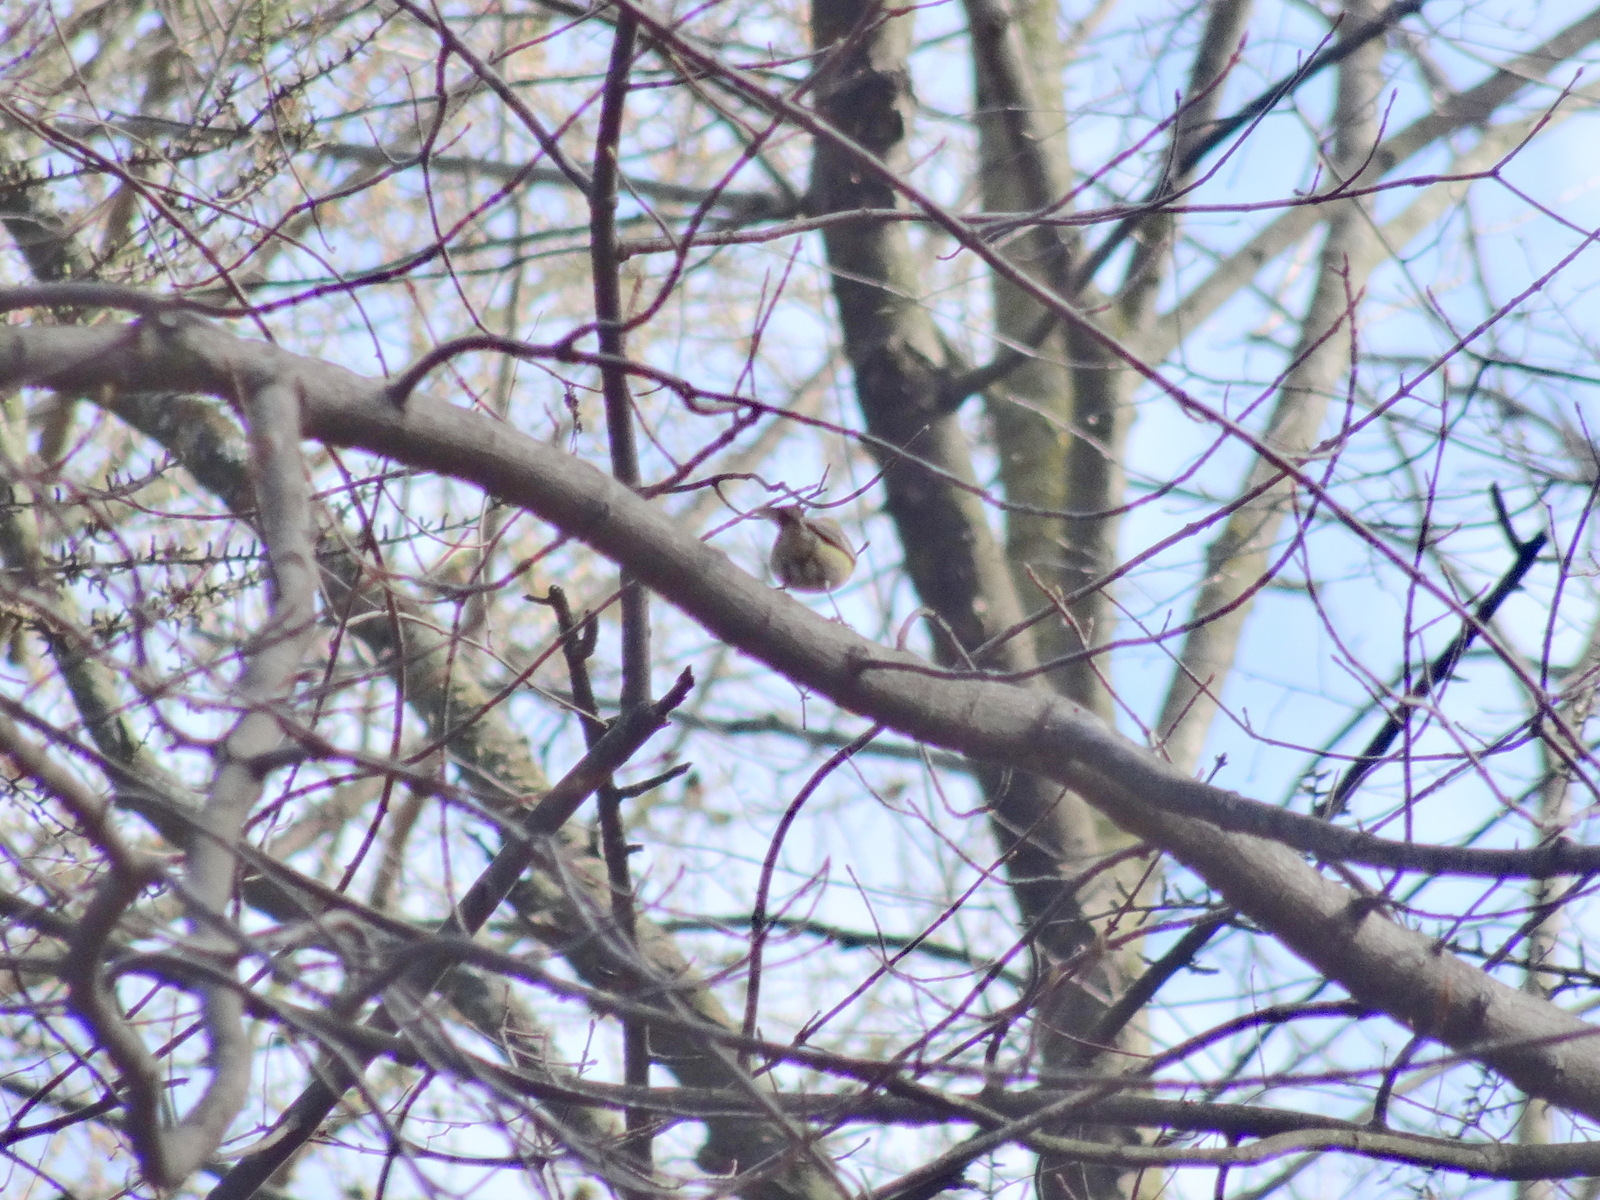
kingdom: Animalia
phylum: Chordata
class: Aves
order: Passeriformes
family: Parulidae
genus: Setophaga
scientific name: Setophaga pinus
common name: Pine warbler
